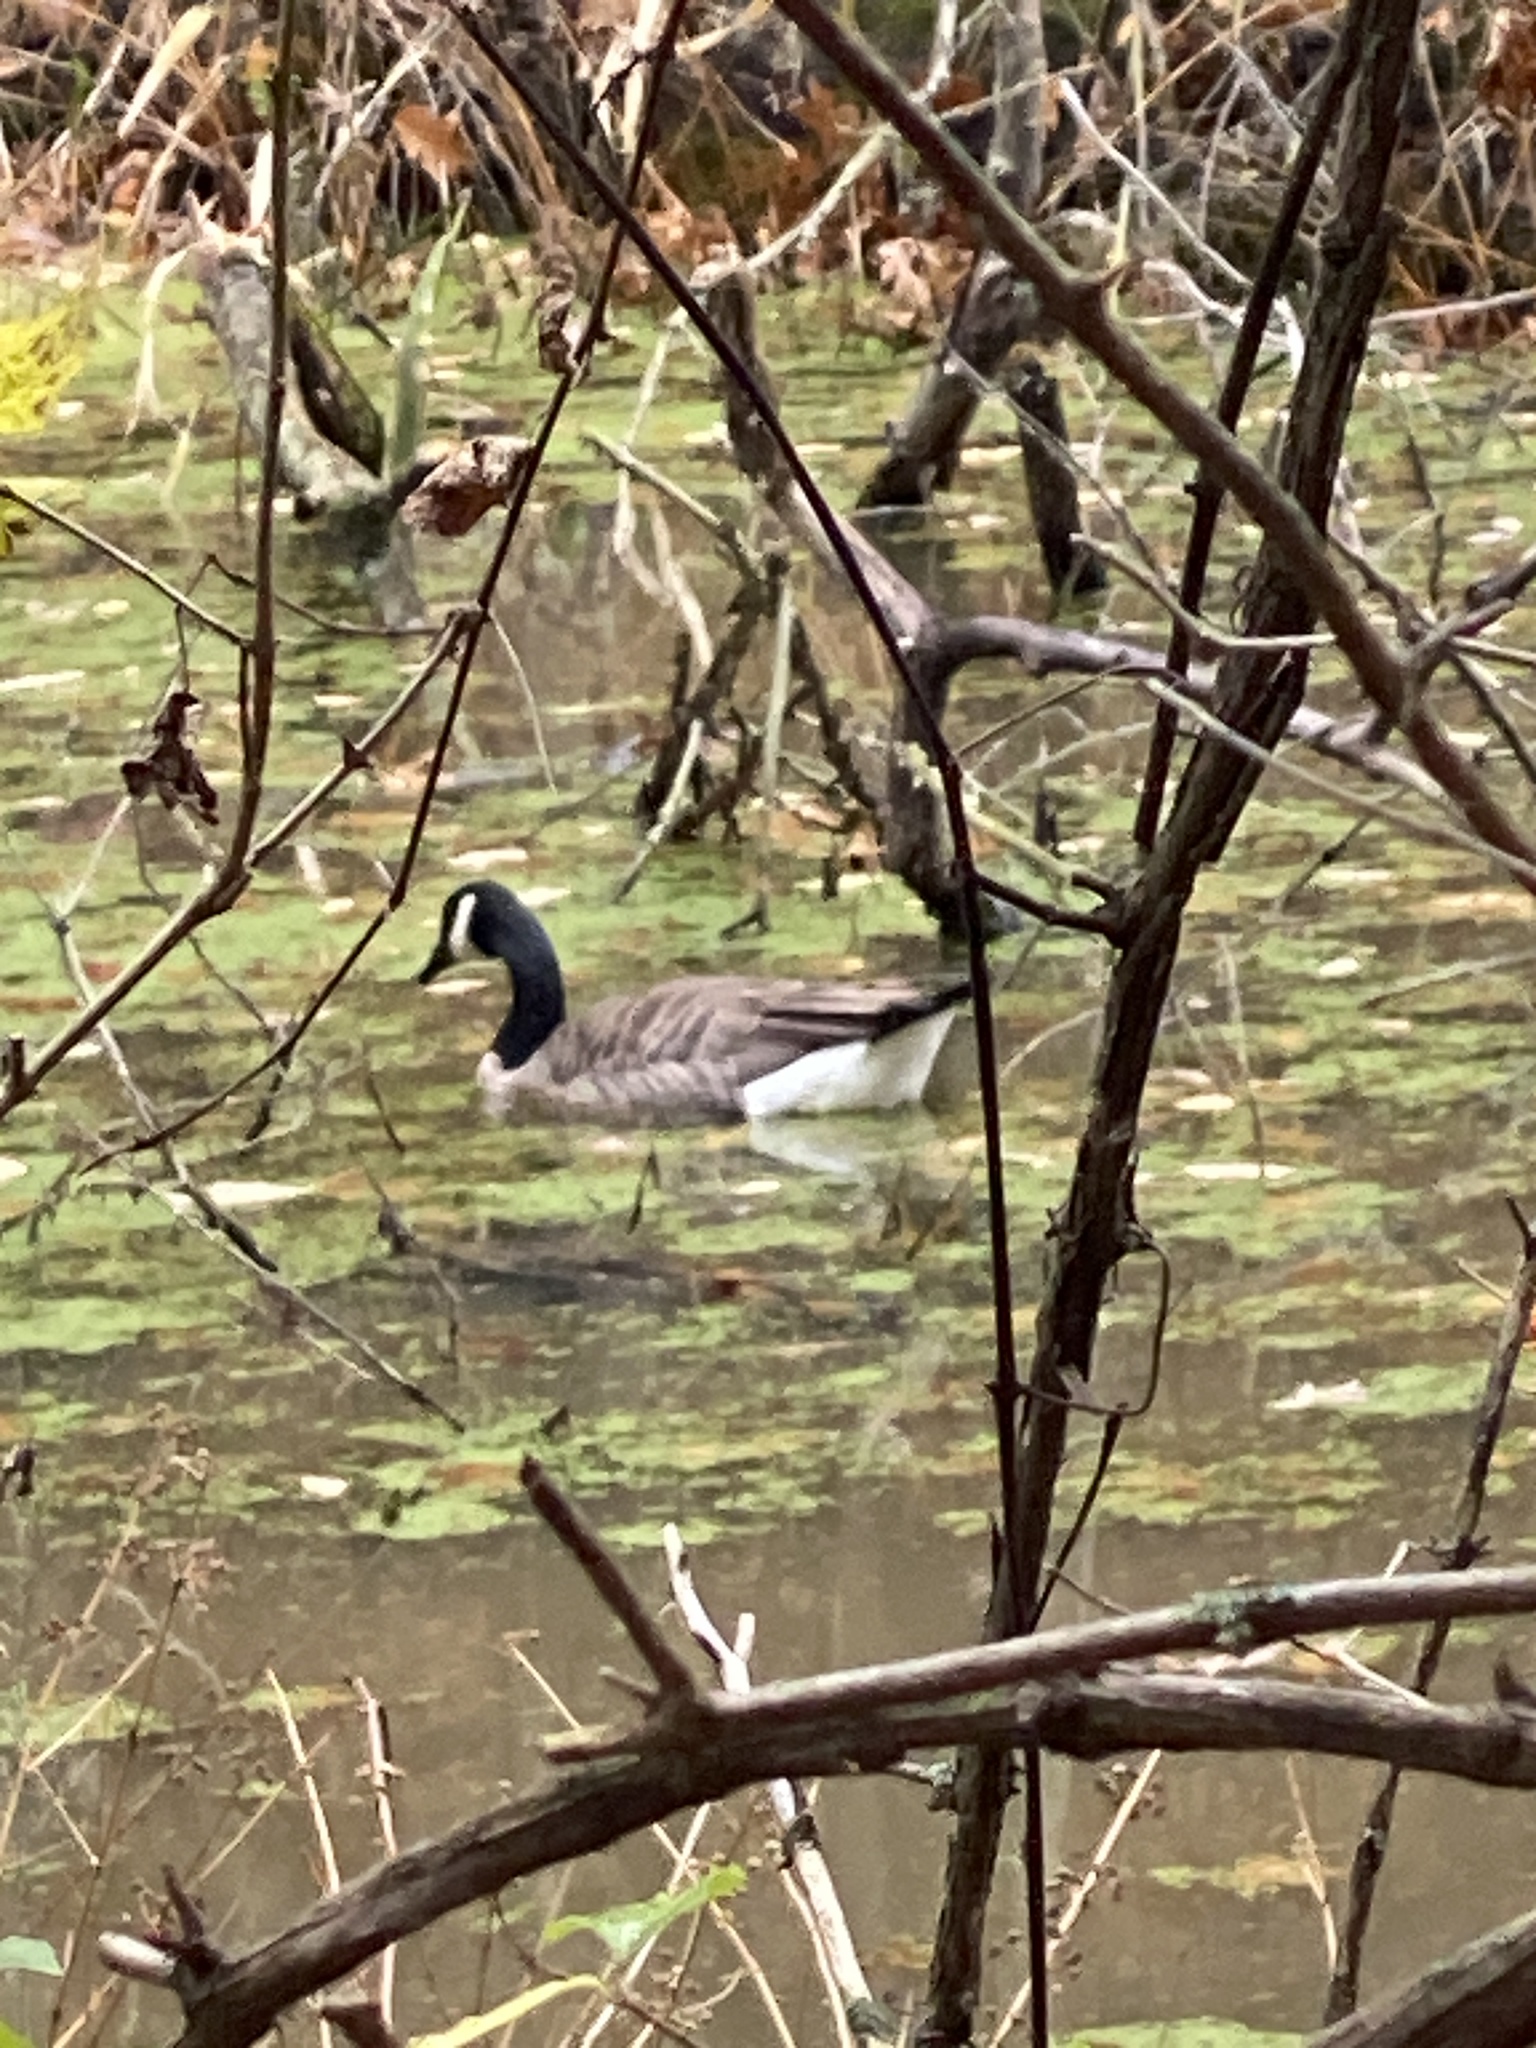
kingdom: Animalia
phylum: Chordata
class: Aves
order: Anseriformes
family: Anatidae
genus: Branta
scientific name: Branta canadensis
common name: Canada goose
